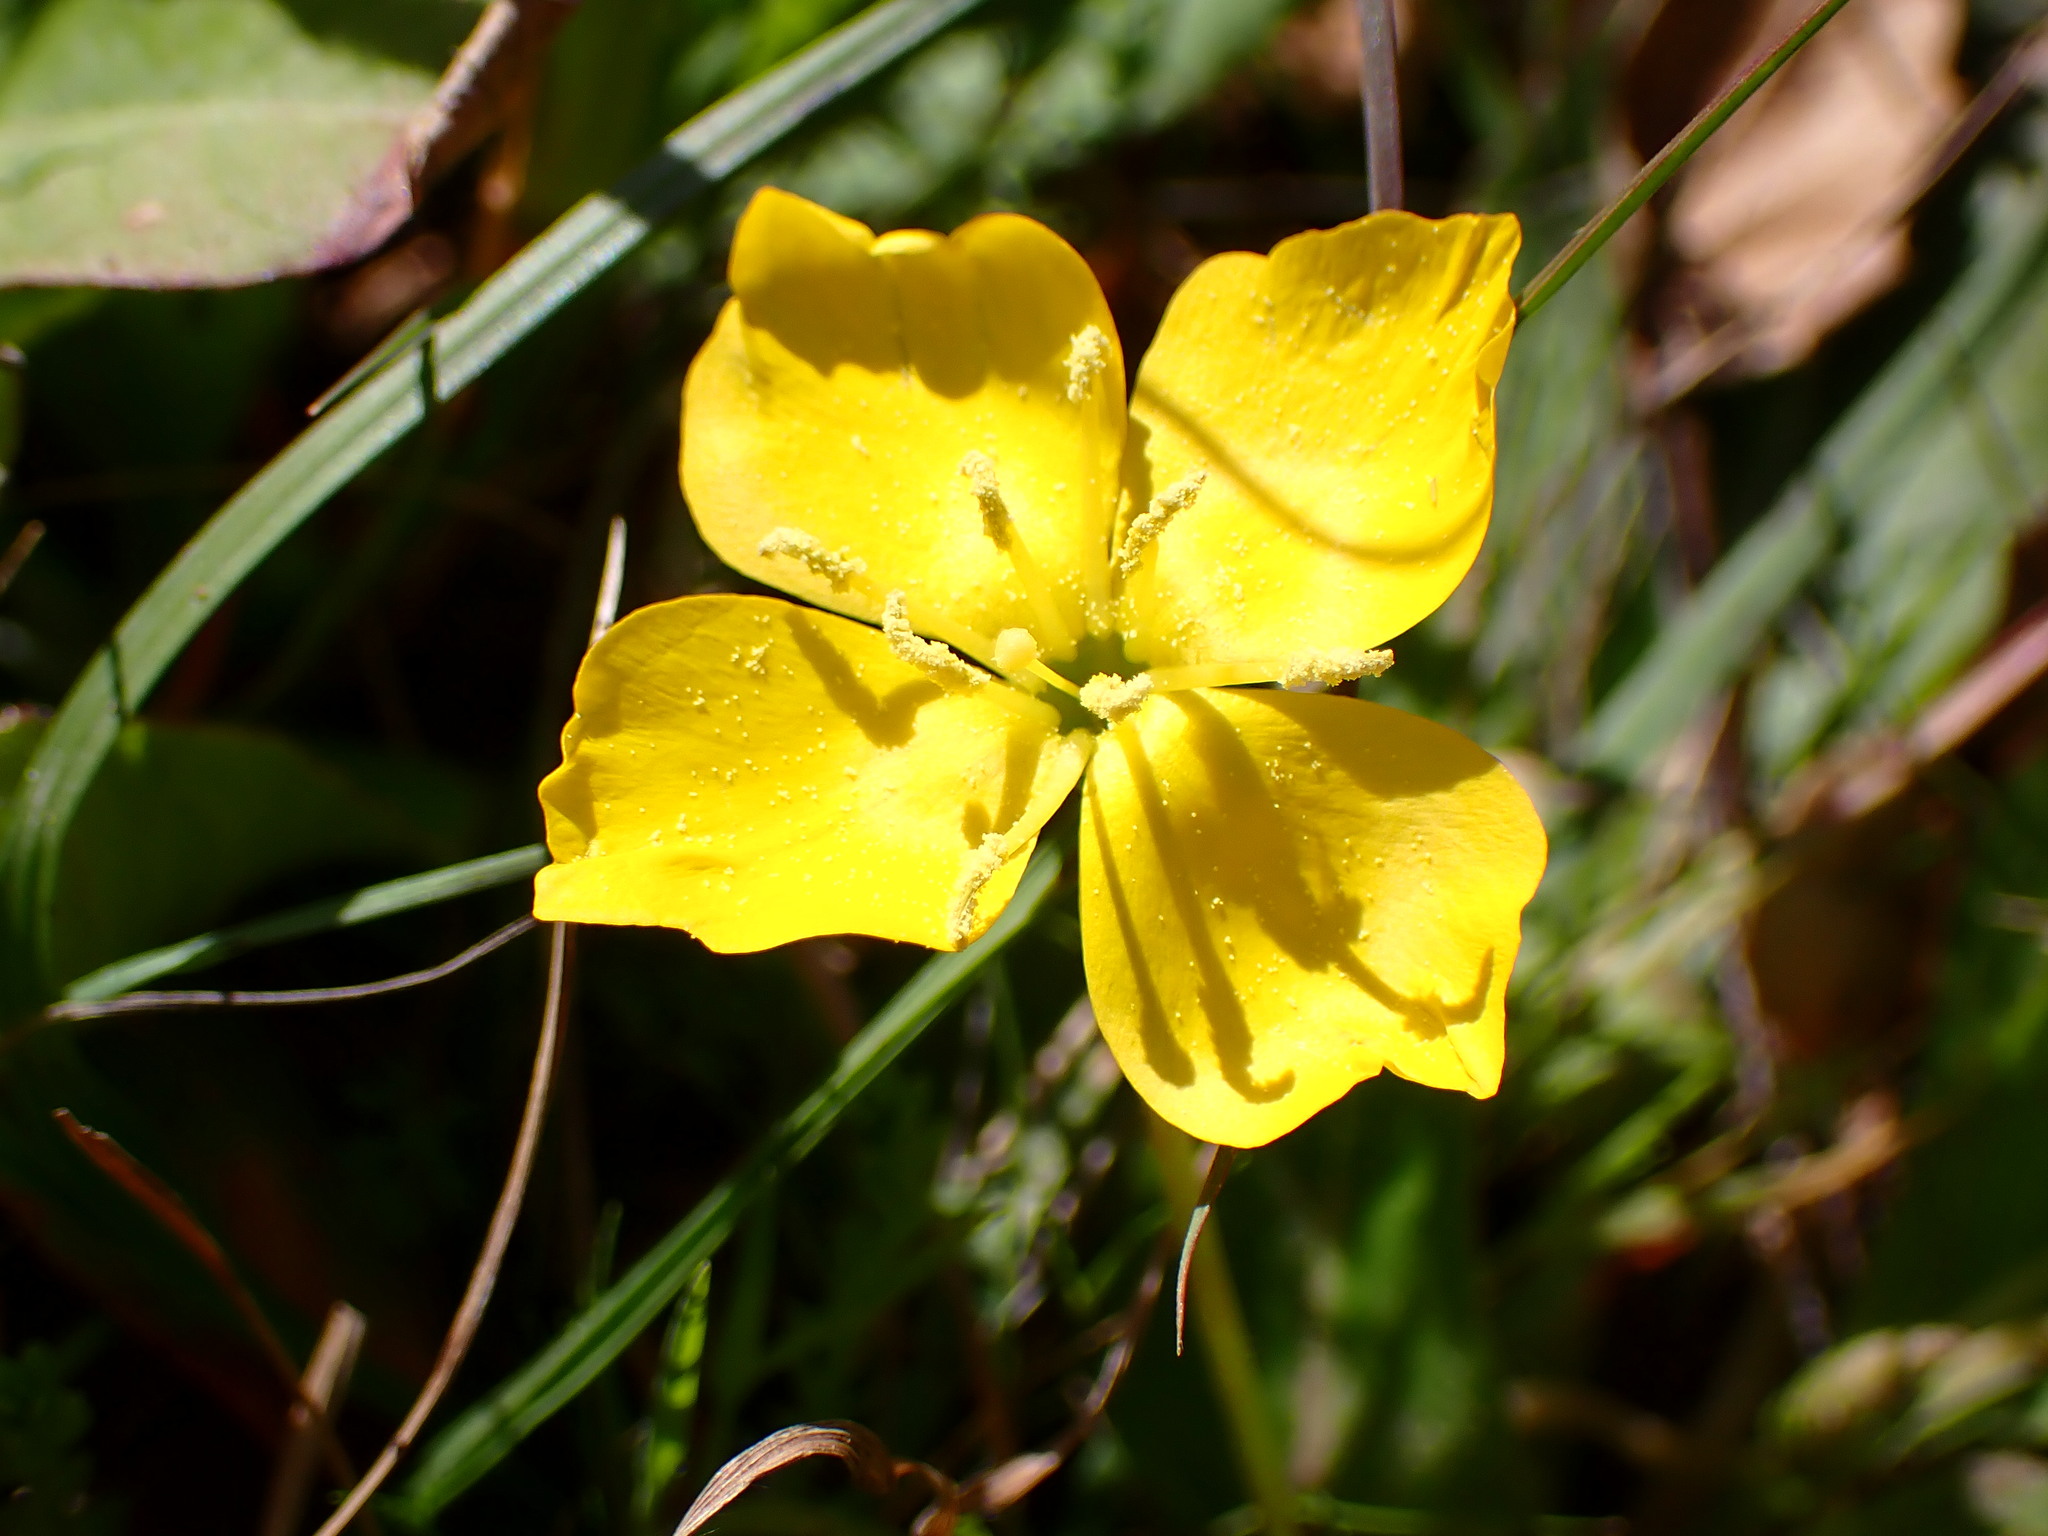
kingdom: Plantae
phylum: Tracheophyta
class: Magnoliopsida
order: Myrtales
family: Onagraceae
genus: Taraxia
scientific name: Taraxia ovata
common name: Goldeneggs
